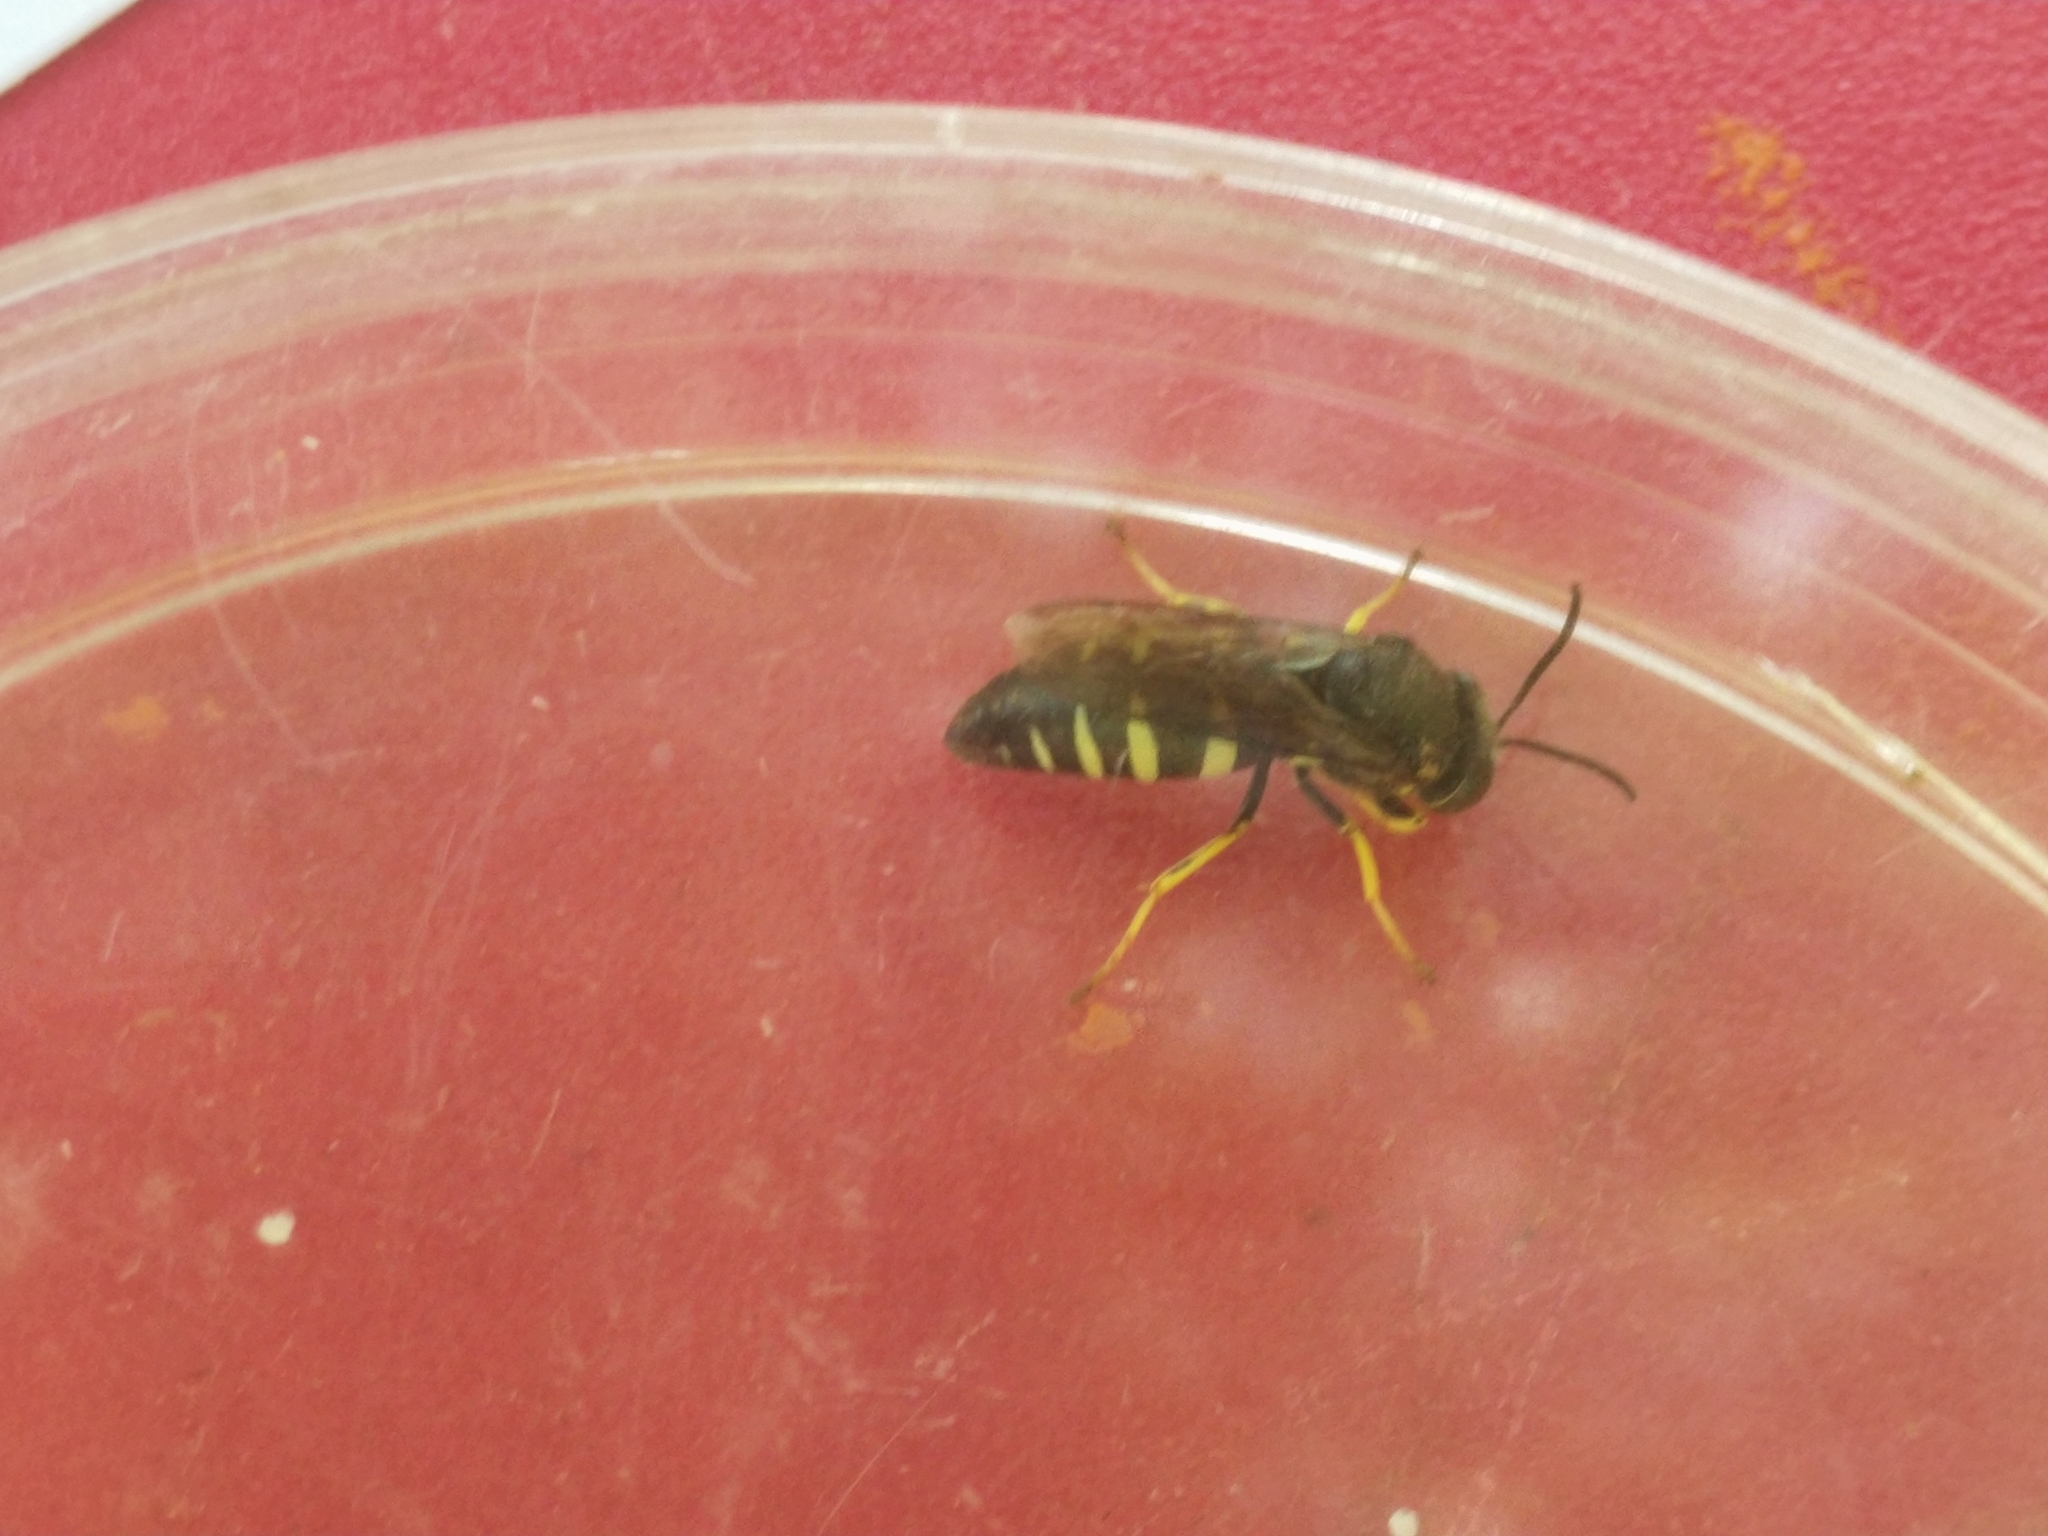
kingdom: Animalia
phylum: Arthropoda
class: Insecta
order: Hymenoptera
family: Crabronidae
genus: Bicyrtes
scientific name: Bicyrtes quadrifasciatus
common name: Four-banded stink bug hunter wasp
